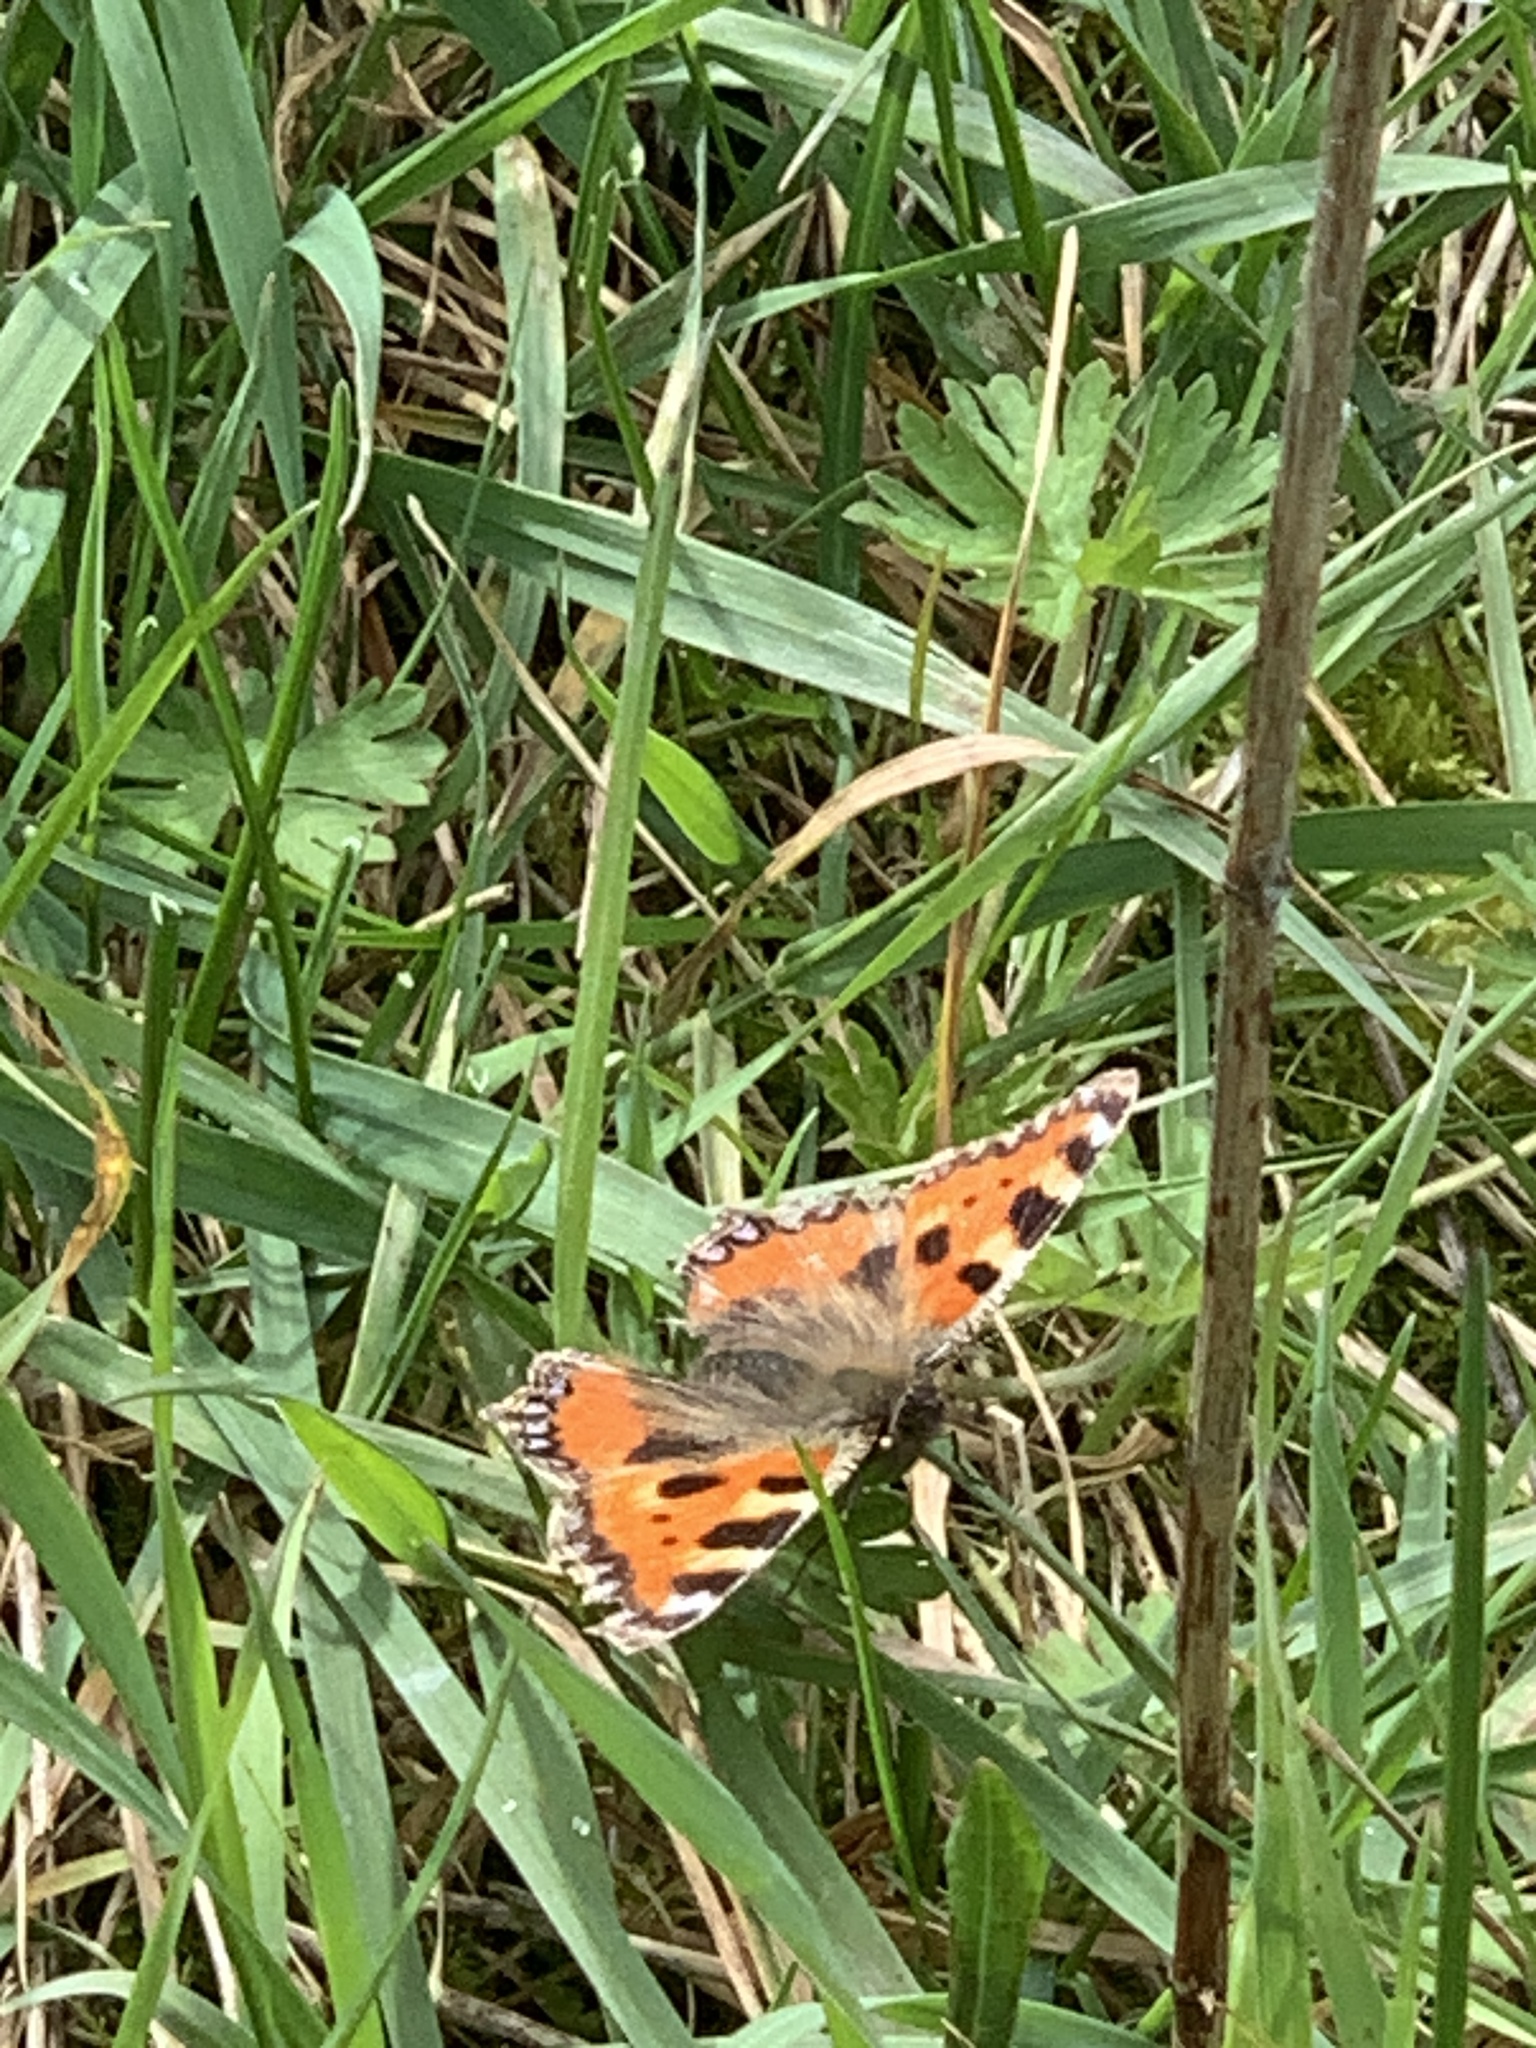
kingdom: Animalia
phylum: Arthropoda
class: Insecta
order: Lepidoptera
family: Nymphalidae
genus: Aglais
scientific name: Aglais urticae
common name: Small tortoiseshell
